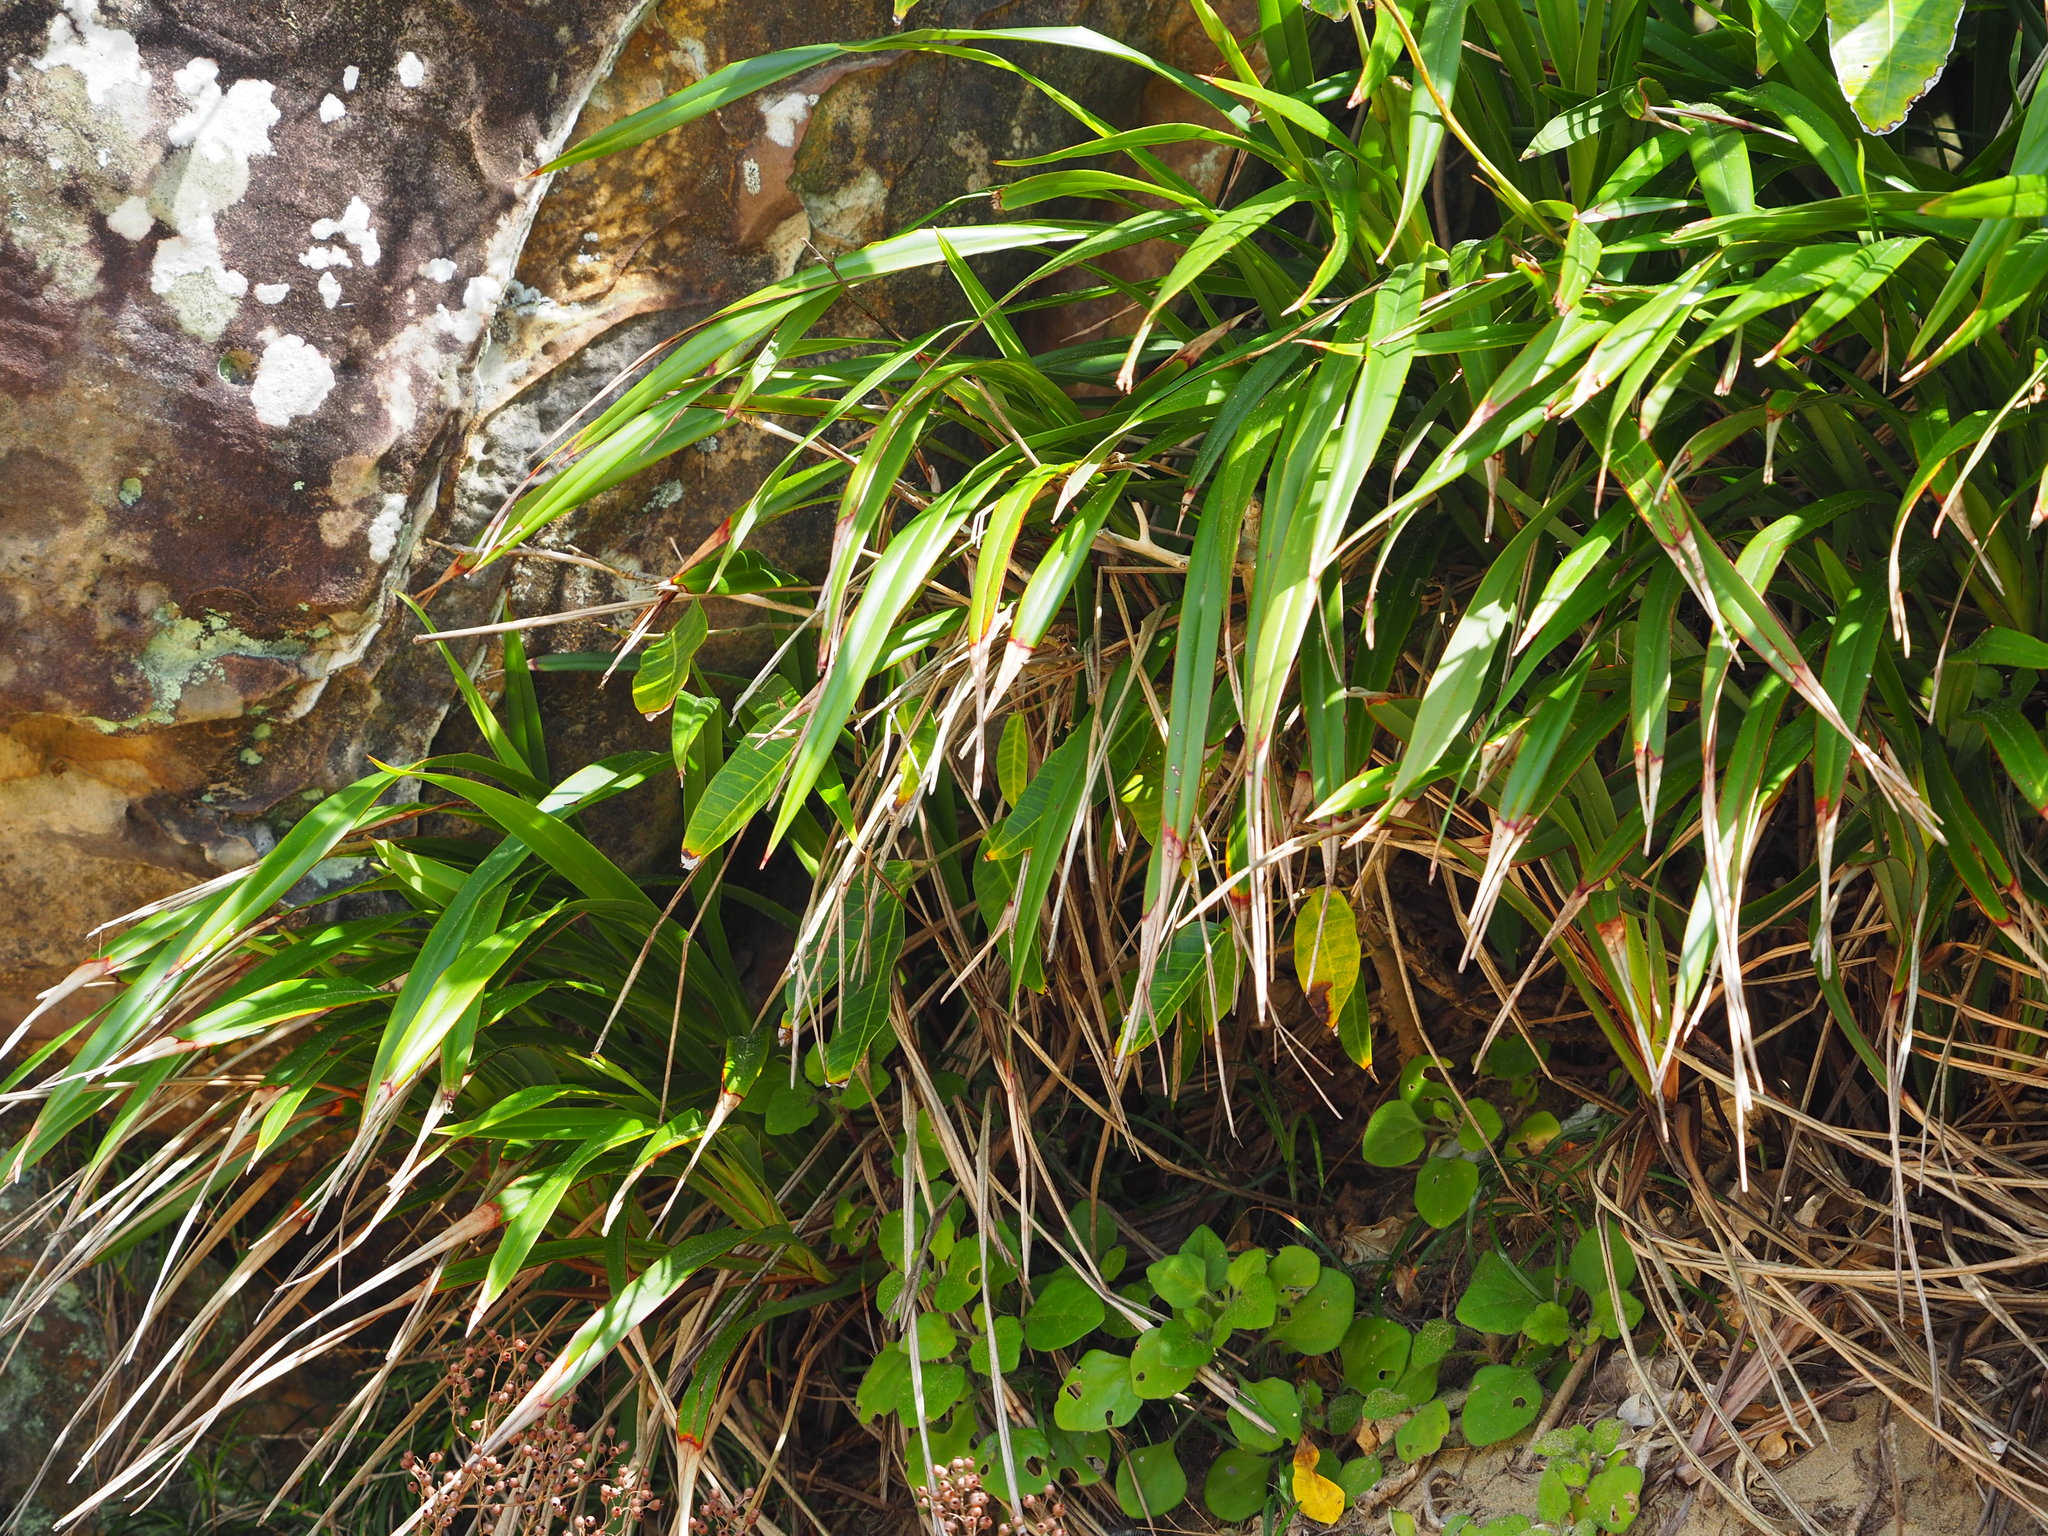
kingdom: Plantae
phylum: Tracheophyta
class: Liliopsida
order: Asparagales
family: Asphodelaceae
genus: Dianella
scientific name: Dianella ensifolia
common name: New zealand lilyplant
